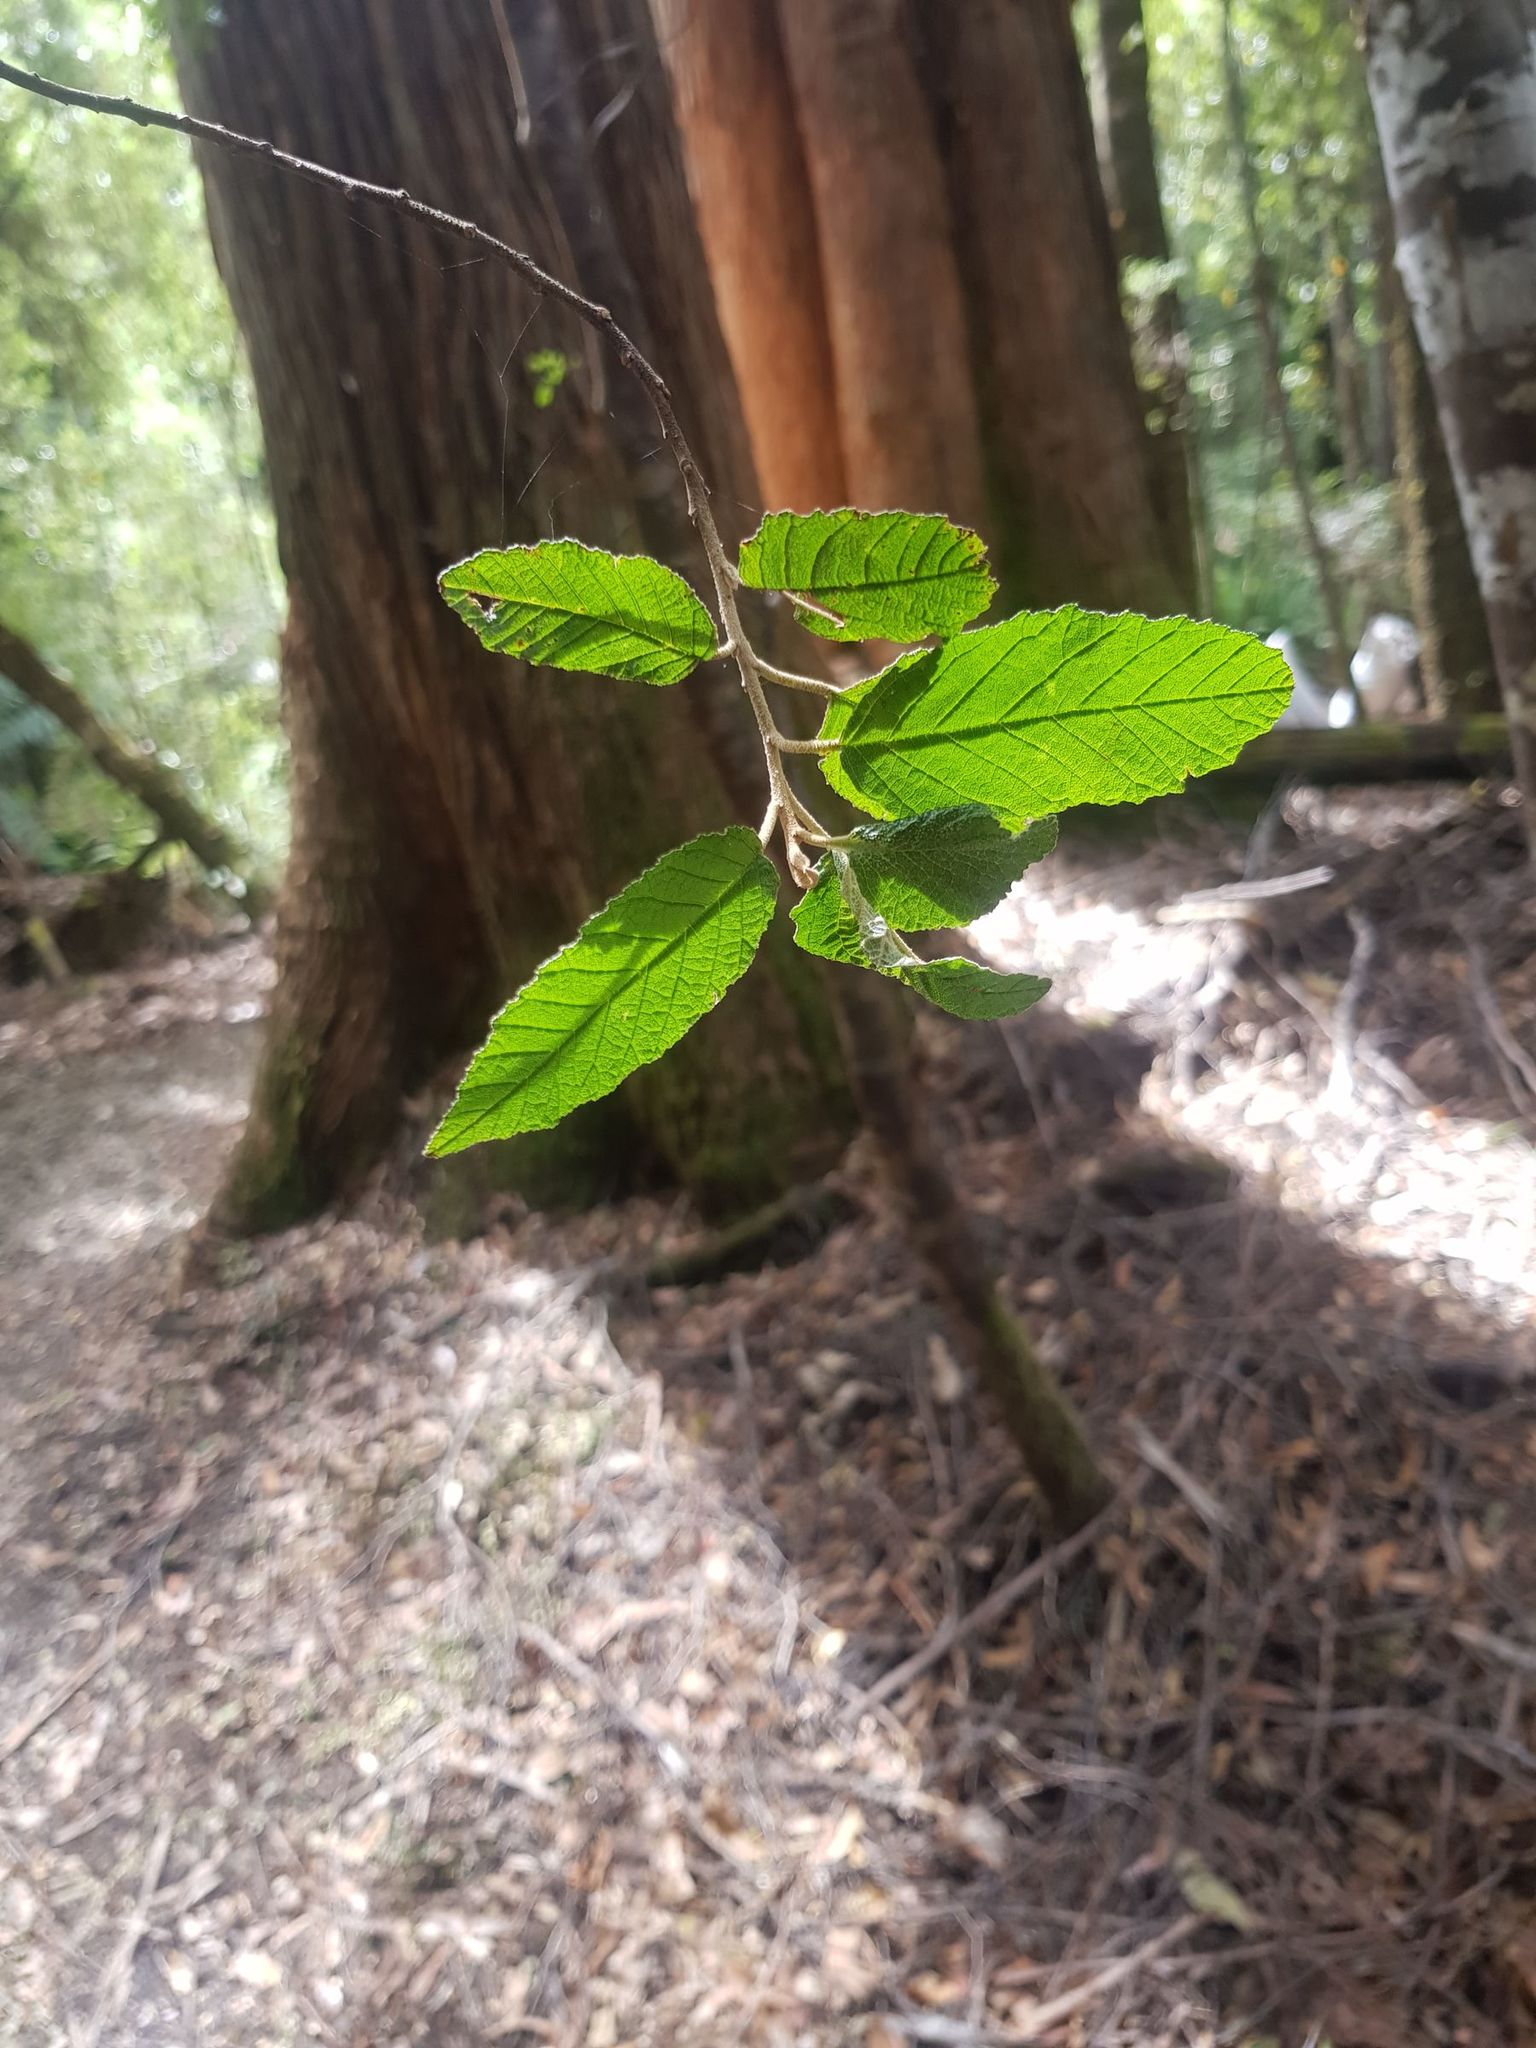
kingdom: Plantae
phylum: Tracheophyta
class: Magnoliopsida
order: Rosales
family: Rhamnaceae
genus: Pomaderris
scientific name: Pomaderris apetala
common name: Hazel pomaderris
